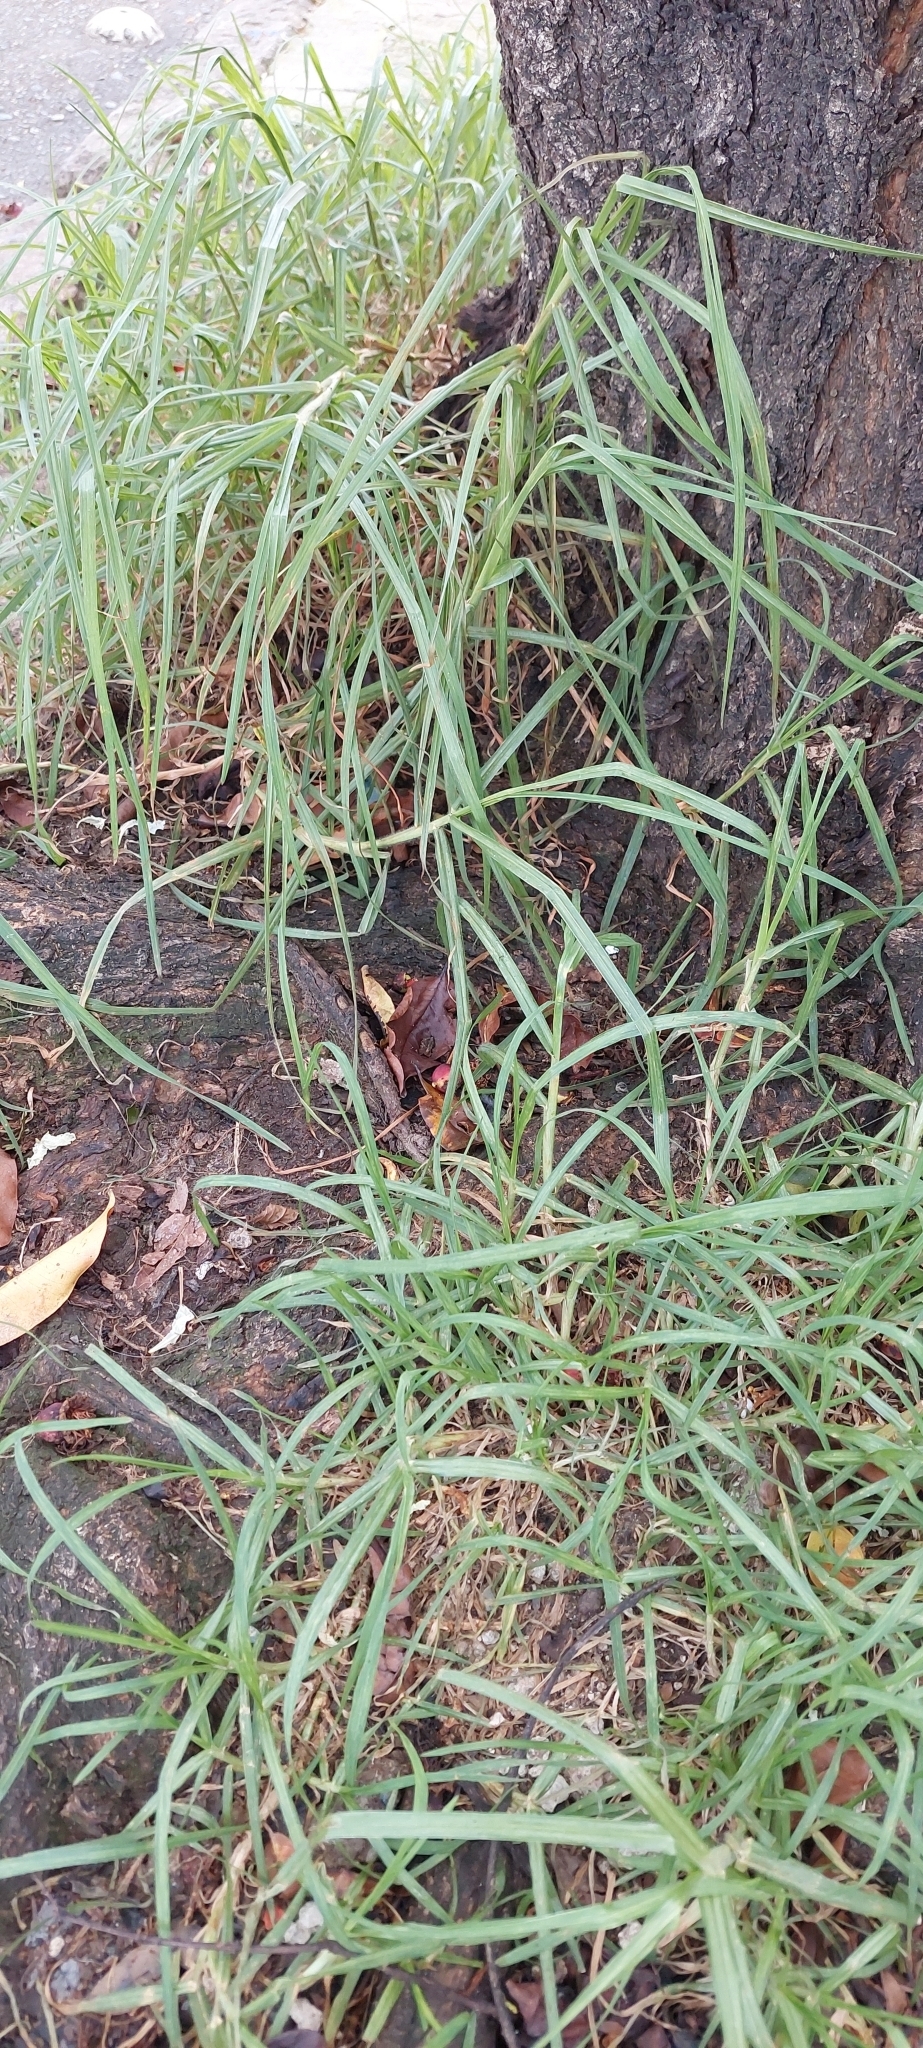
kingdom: Plantae
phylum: Tracheophyta
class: Liliopsida
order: Poales
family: Poaceae
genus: Cenchrus
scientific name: Cenchrus clandestinus
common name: Kikuyugrass
